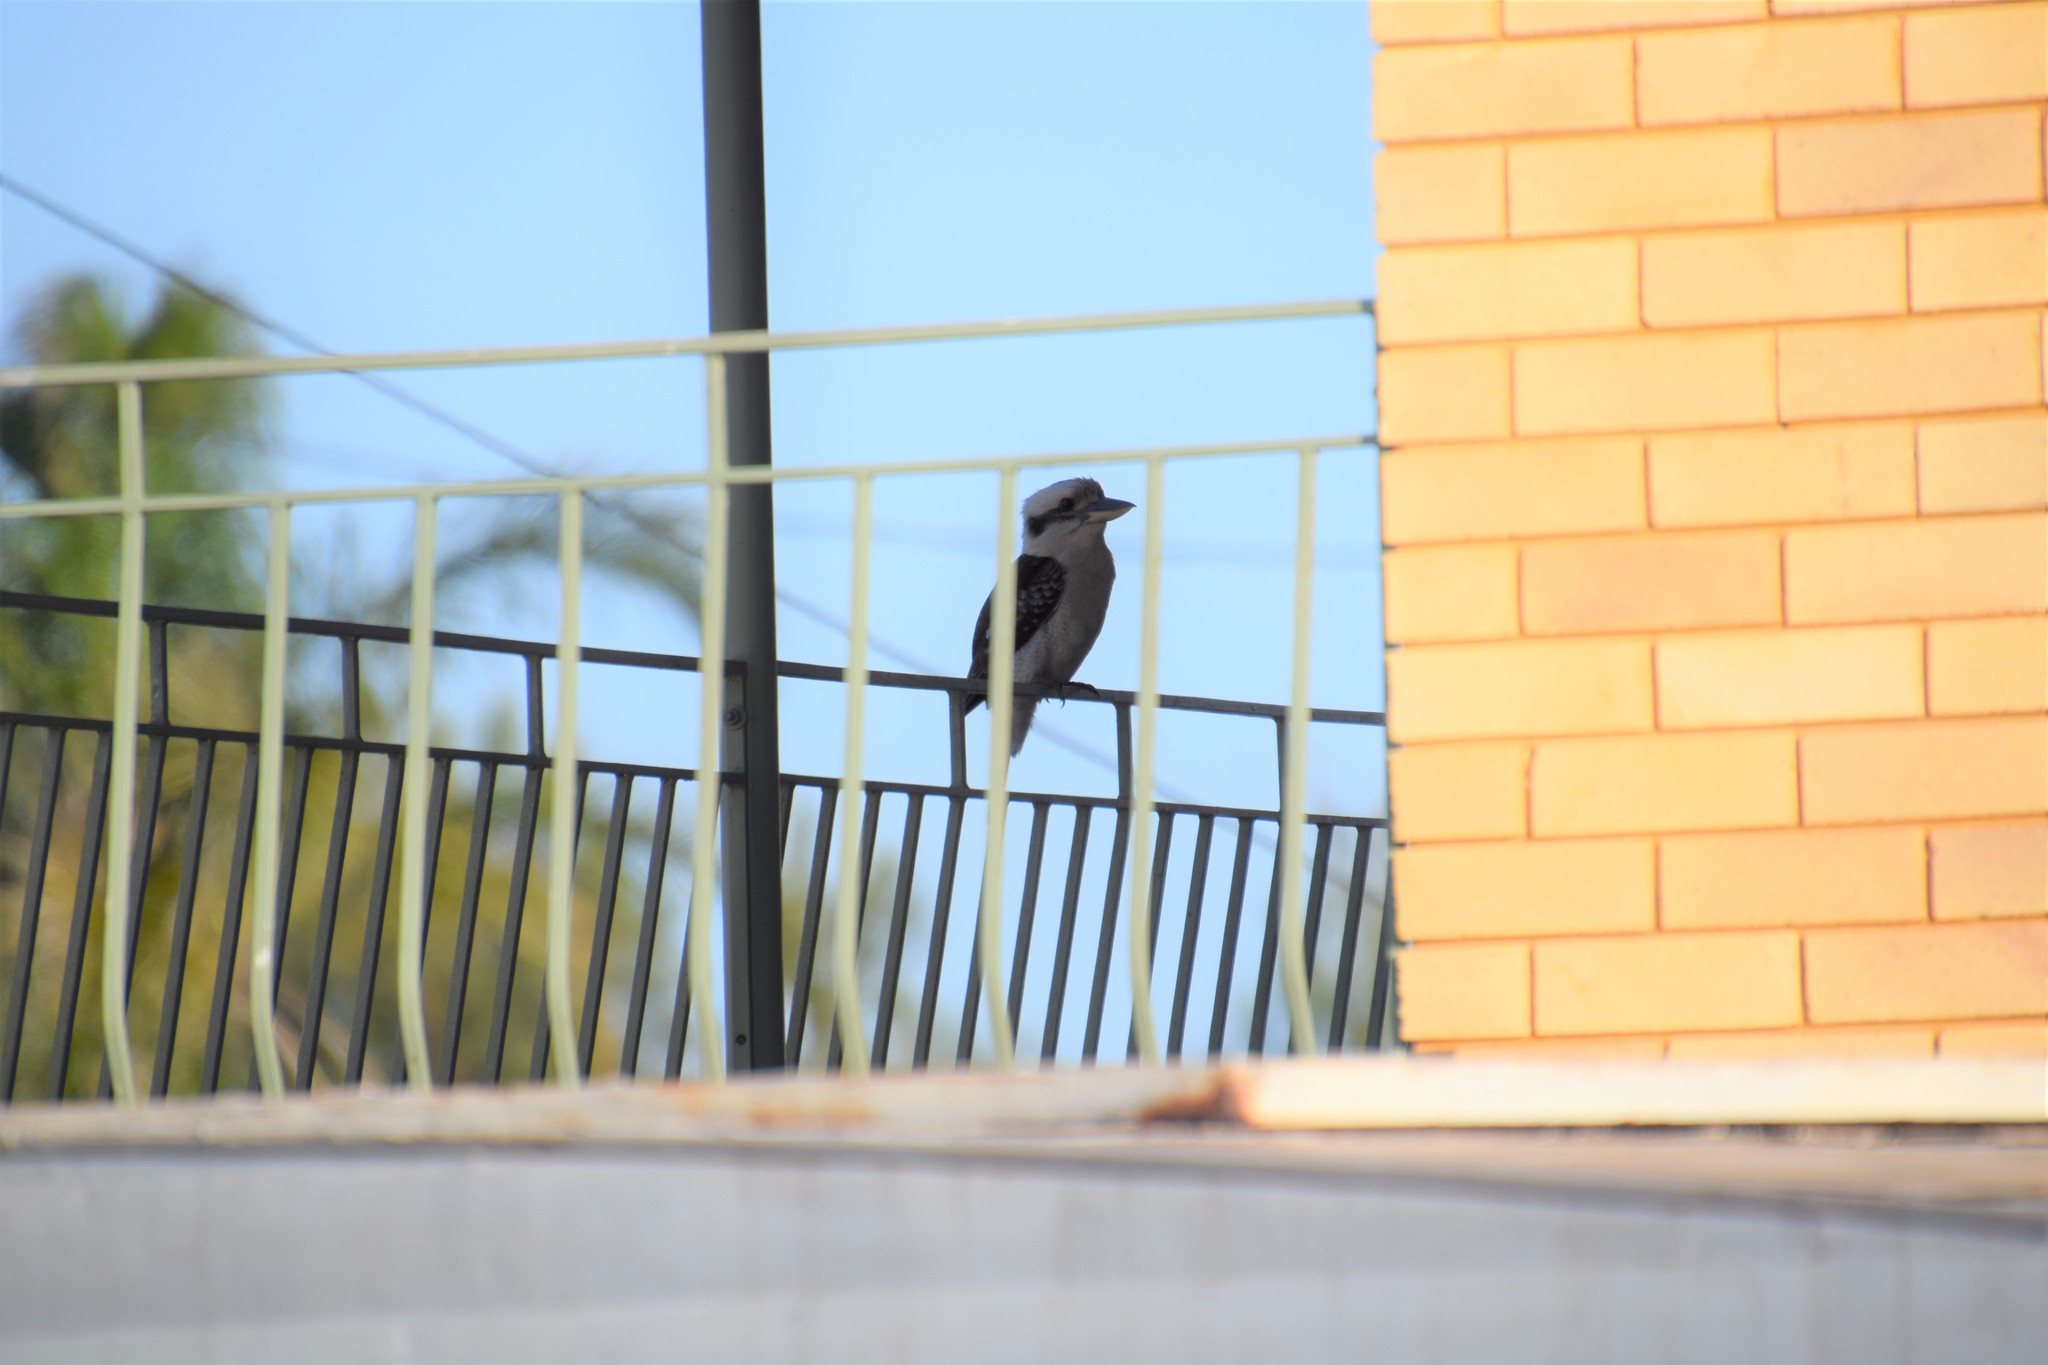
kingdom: Animalia
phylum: Chordata
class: Aves
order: Coraciiformes
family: Alcedinidae
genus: Dacelo
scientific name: Dacelo novaeguineae
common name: Laughing kookaburra
